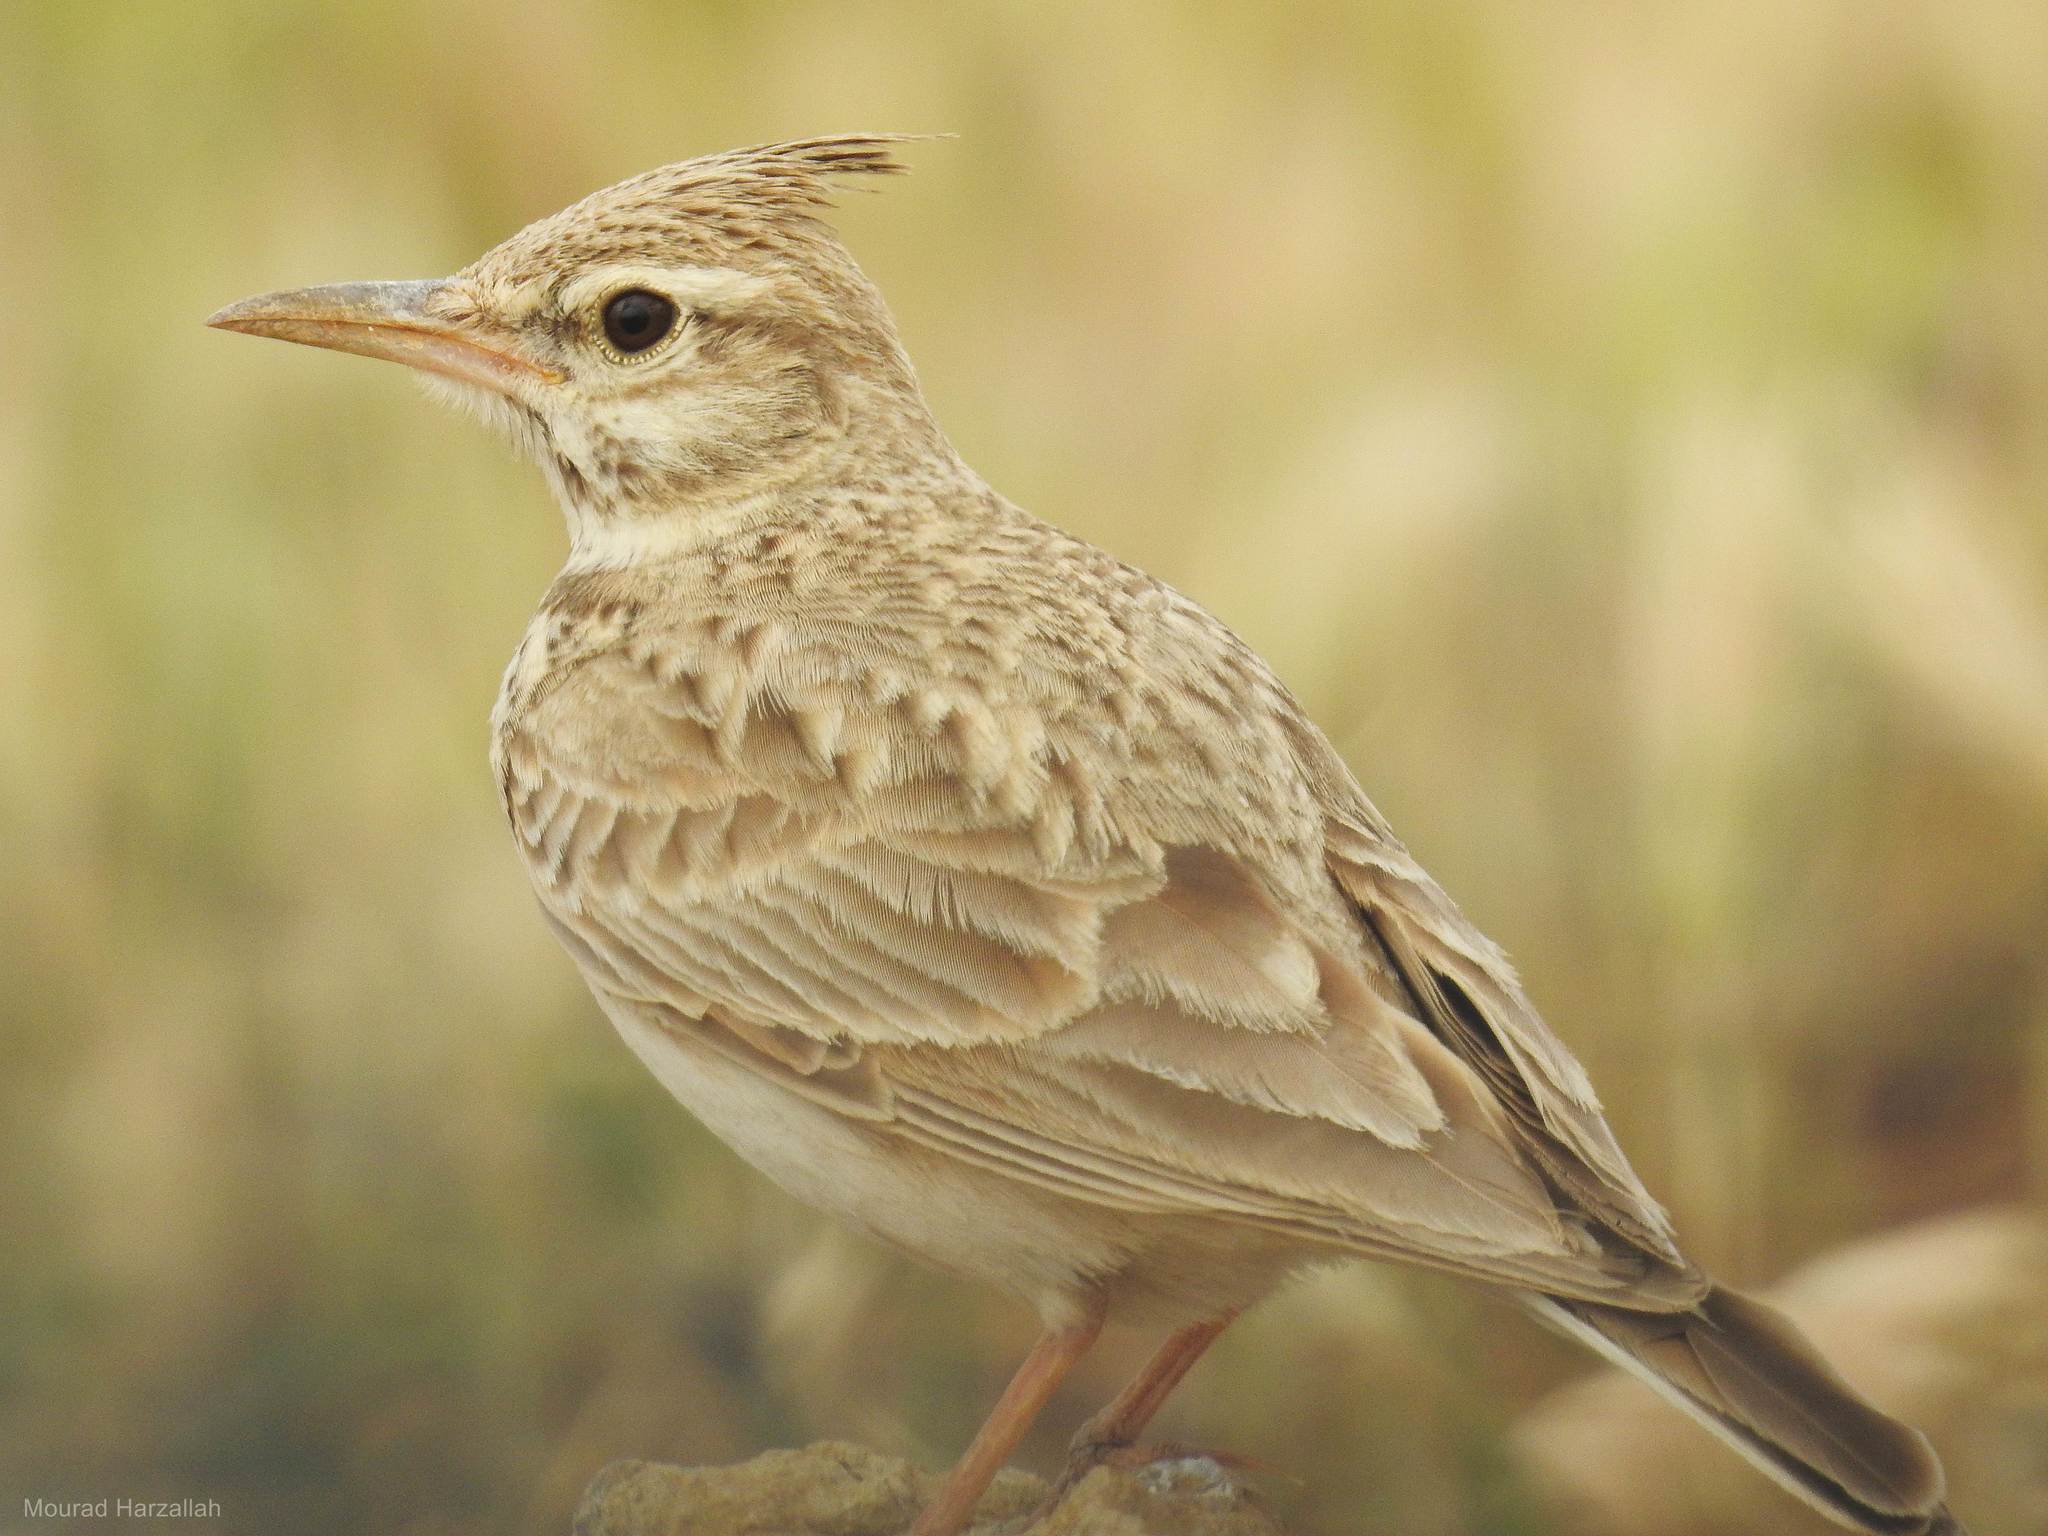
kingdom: Animalia
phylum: Chordata
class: Aves
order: Passeriformes
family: Alaudidae
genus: Galerida
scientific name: Galerida cristata
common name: Crested lark
